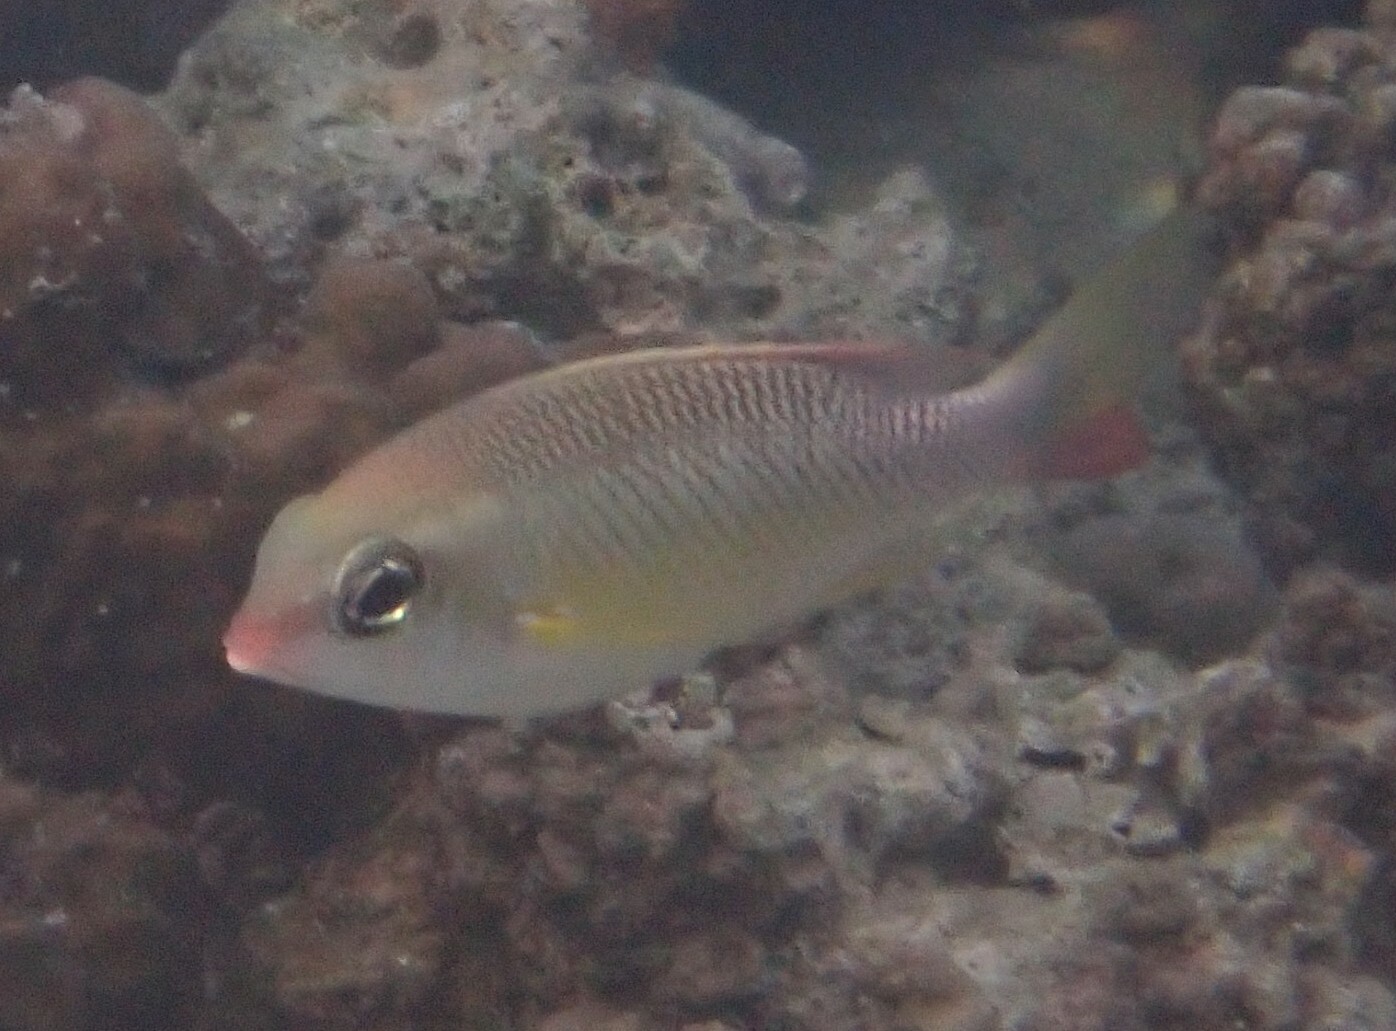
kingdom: Animalia
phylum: Chordata
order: Perciformes
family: Nemipteridae
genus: Scolopsis
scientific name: Scolopsis margaritifera
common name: Pearly monocle bream
